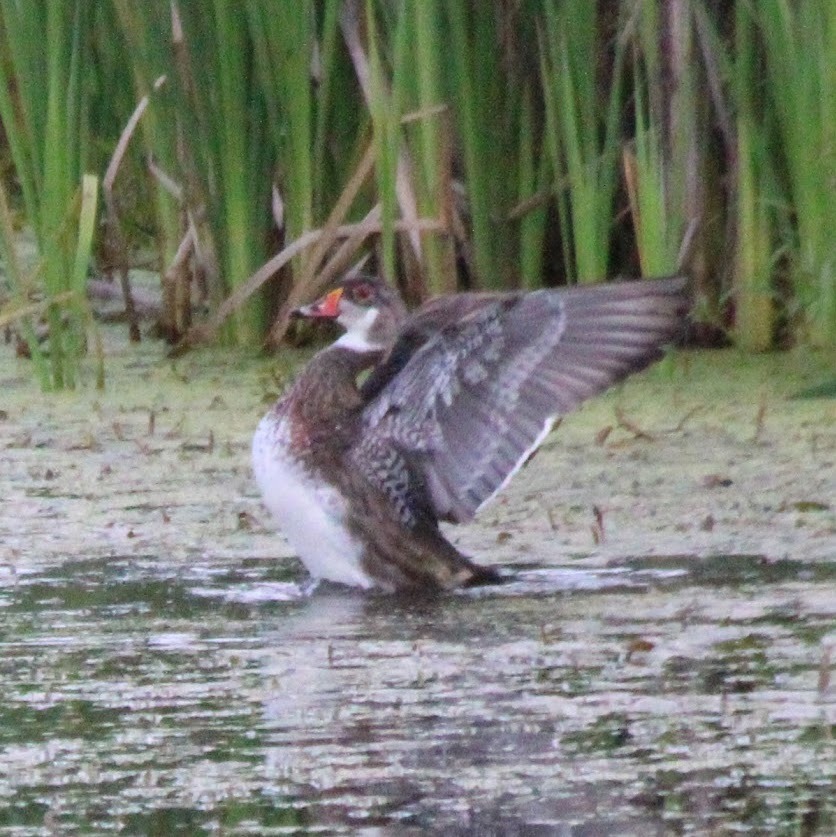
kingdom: Animalia
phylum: Chordata
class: Aves
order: Anseriformes
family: Anatidae
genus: Aix
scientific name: Aix sponsa
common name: Wood duck
